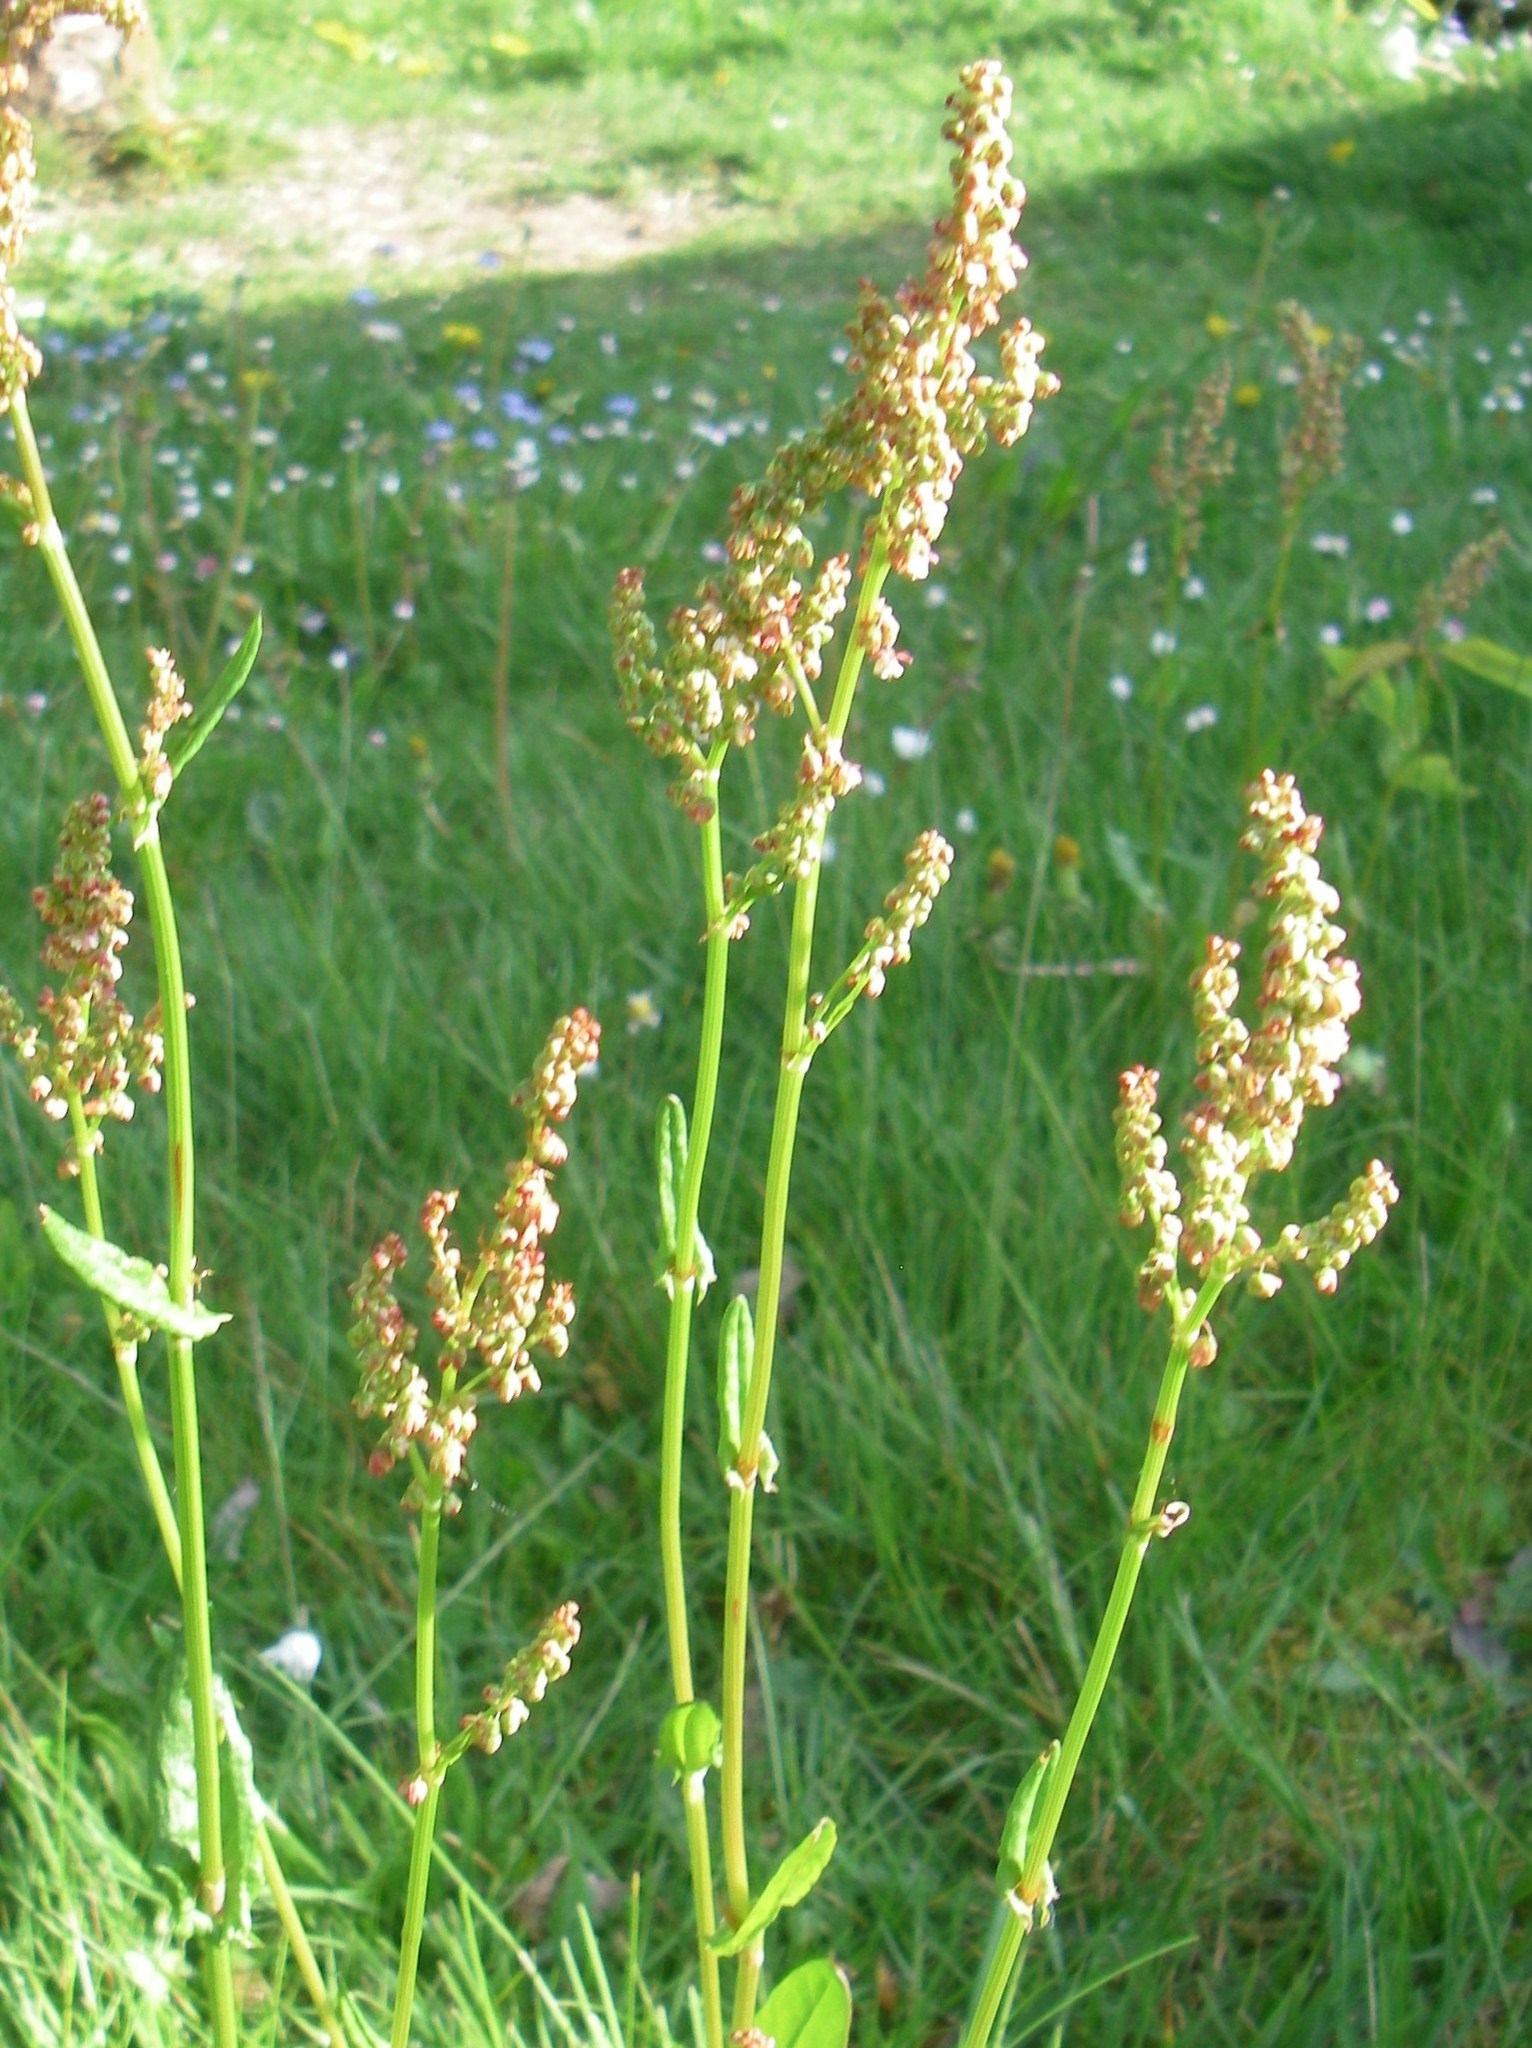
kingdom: Plantae
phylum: Tracheophyta
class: Magnoliopsida
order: Caryophyllales
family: Polygonaceae
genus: Rumex
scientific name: Rumex acetosa
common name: Garden sorrel
